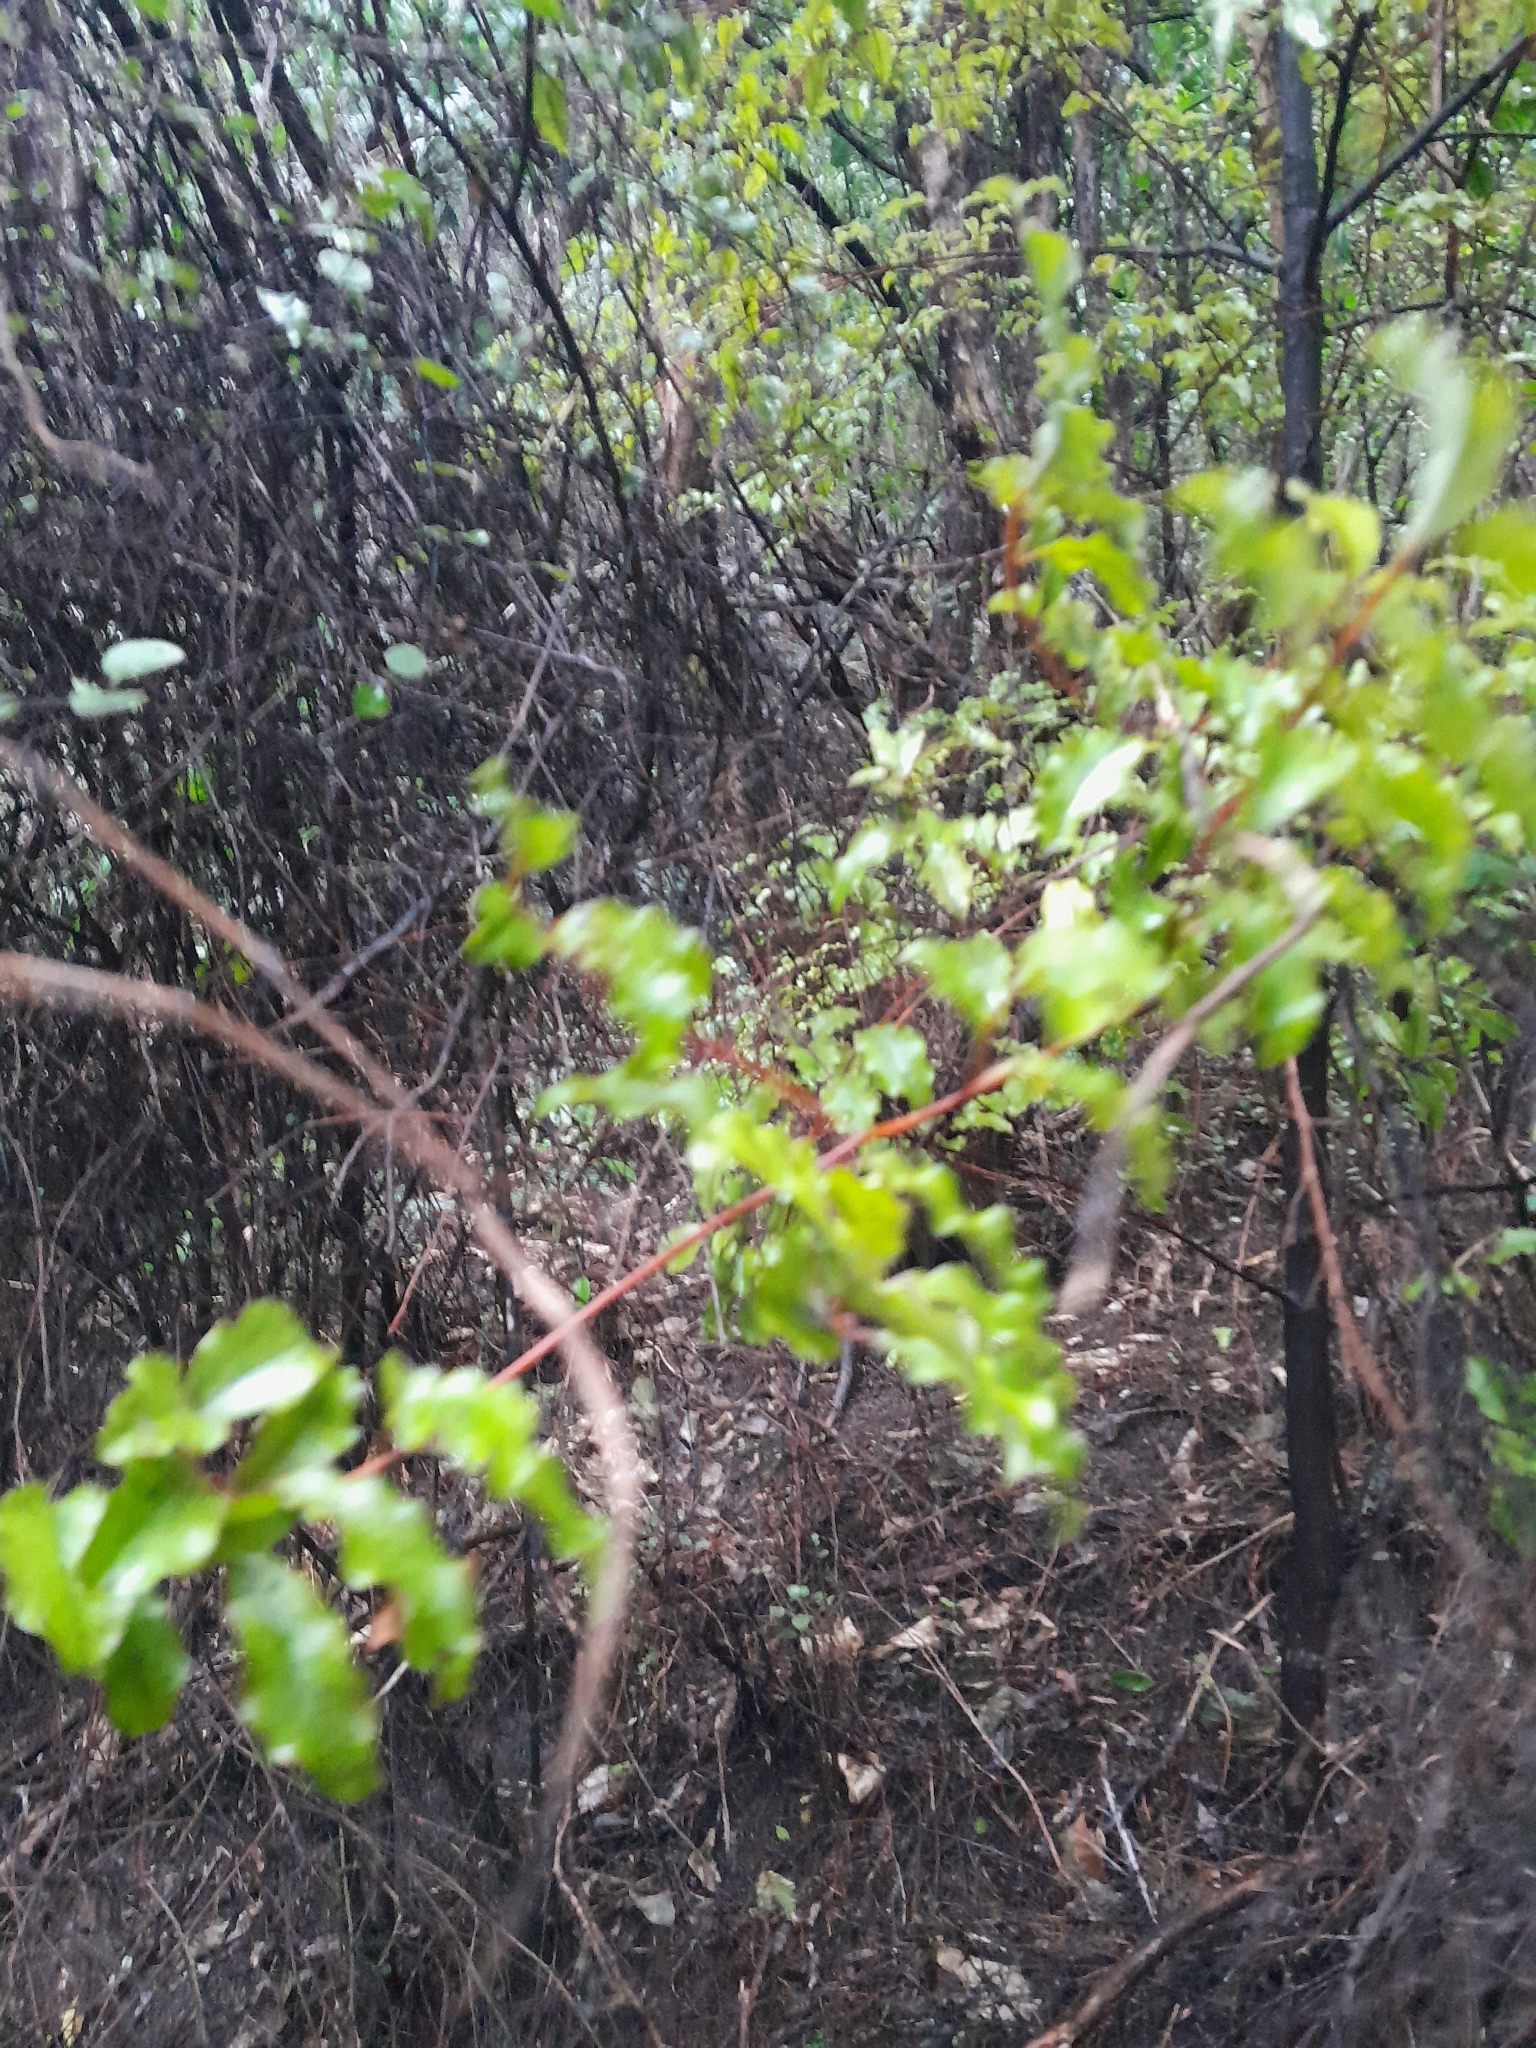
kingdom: Plantae
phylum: Tracheophyta
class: Magnoliopsida
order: Ericales
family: Primulaceae
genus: Myrsine
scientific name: Myrsine australis
